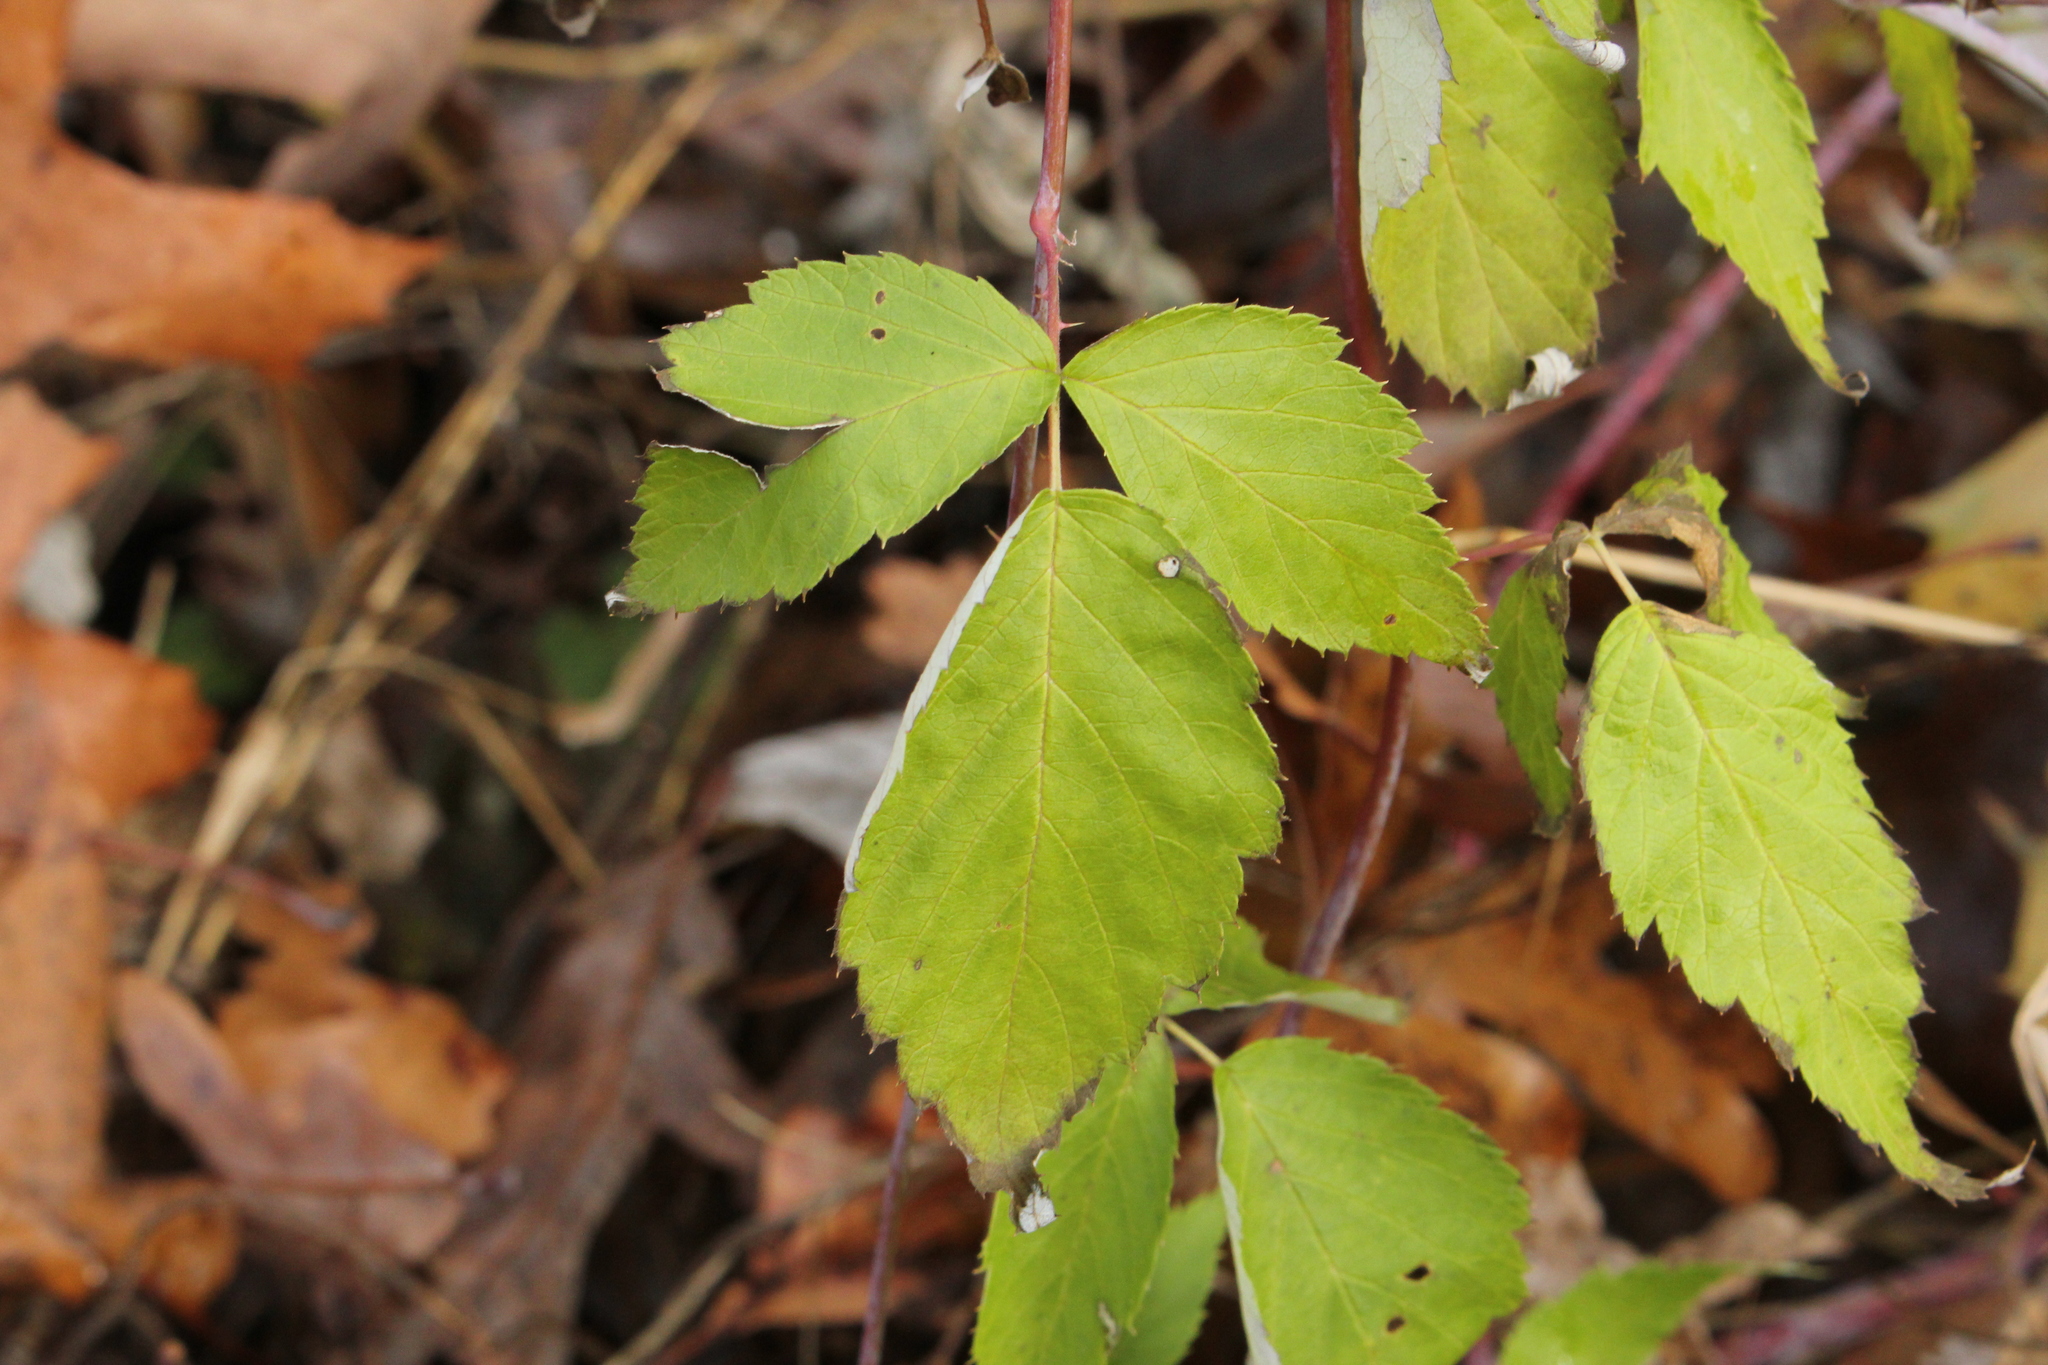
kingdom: Plantae
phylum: Tracheophyta
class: Magnoliopsida
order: Rosales
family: Rosaceae
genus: Rubus
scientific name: Rubus occidentalis
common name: Black raspberry
